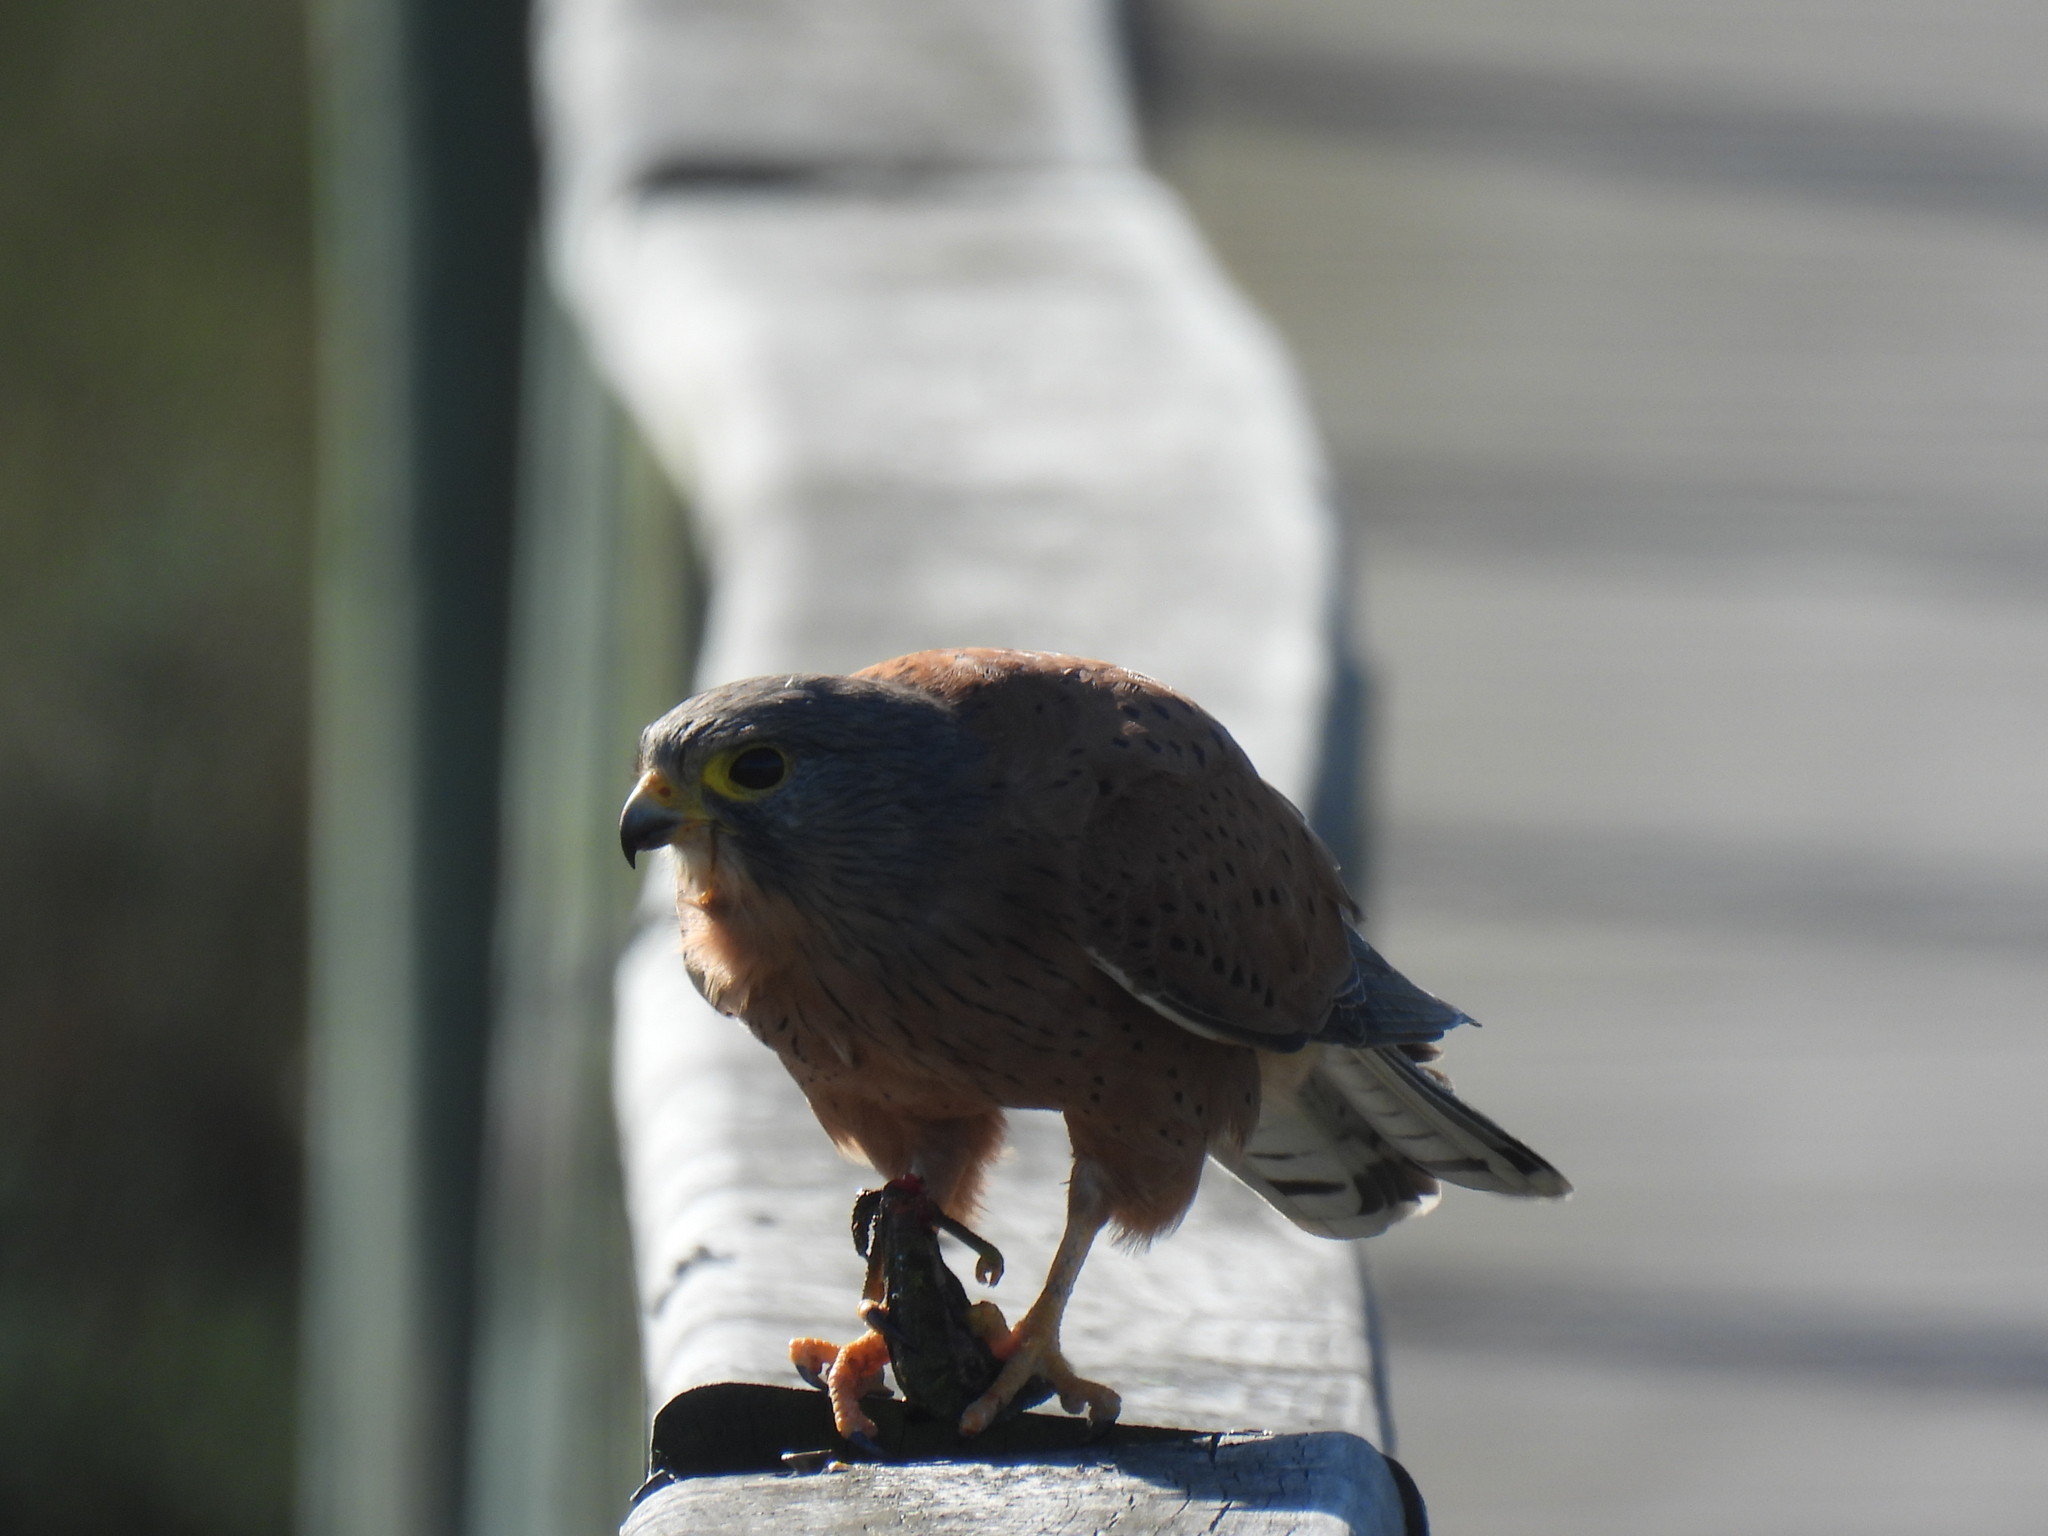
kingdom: Animalia
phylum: Chordata
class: Aves
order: Falconiformes
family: Falconidae
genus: Falco
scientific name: Falco rupicolus
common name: Rock kestrel
